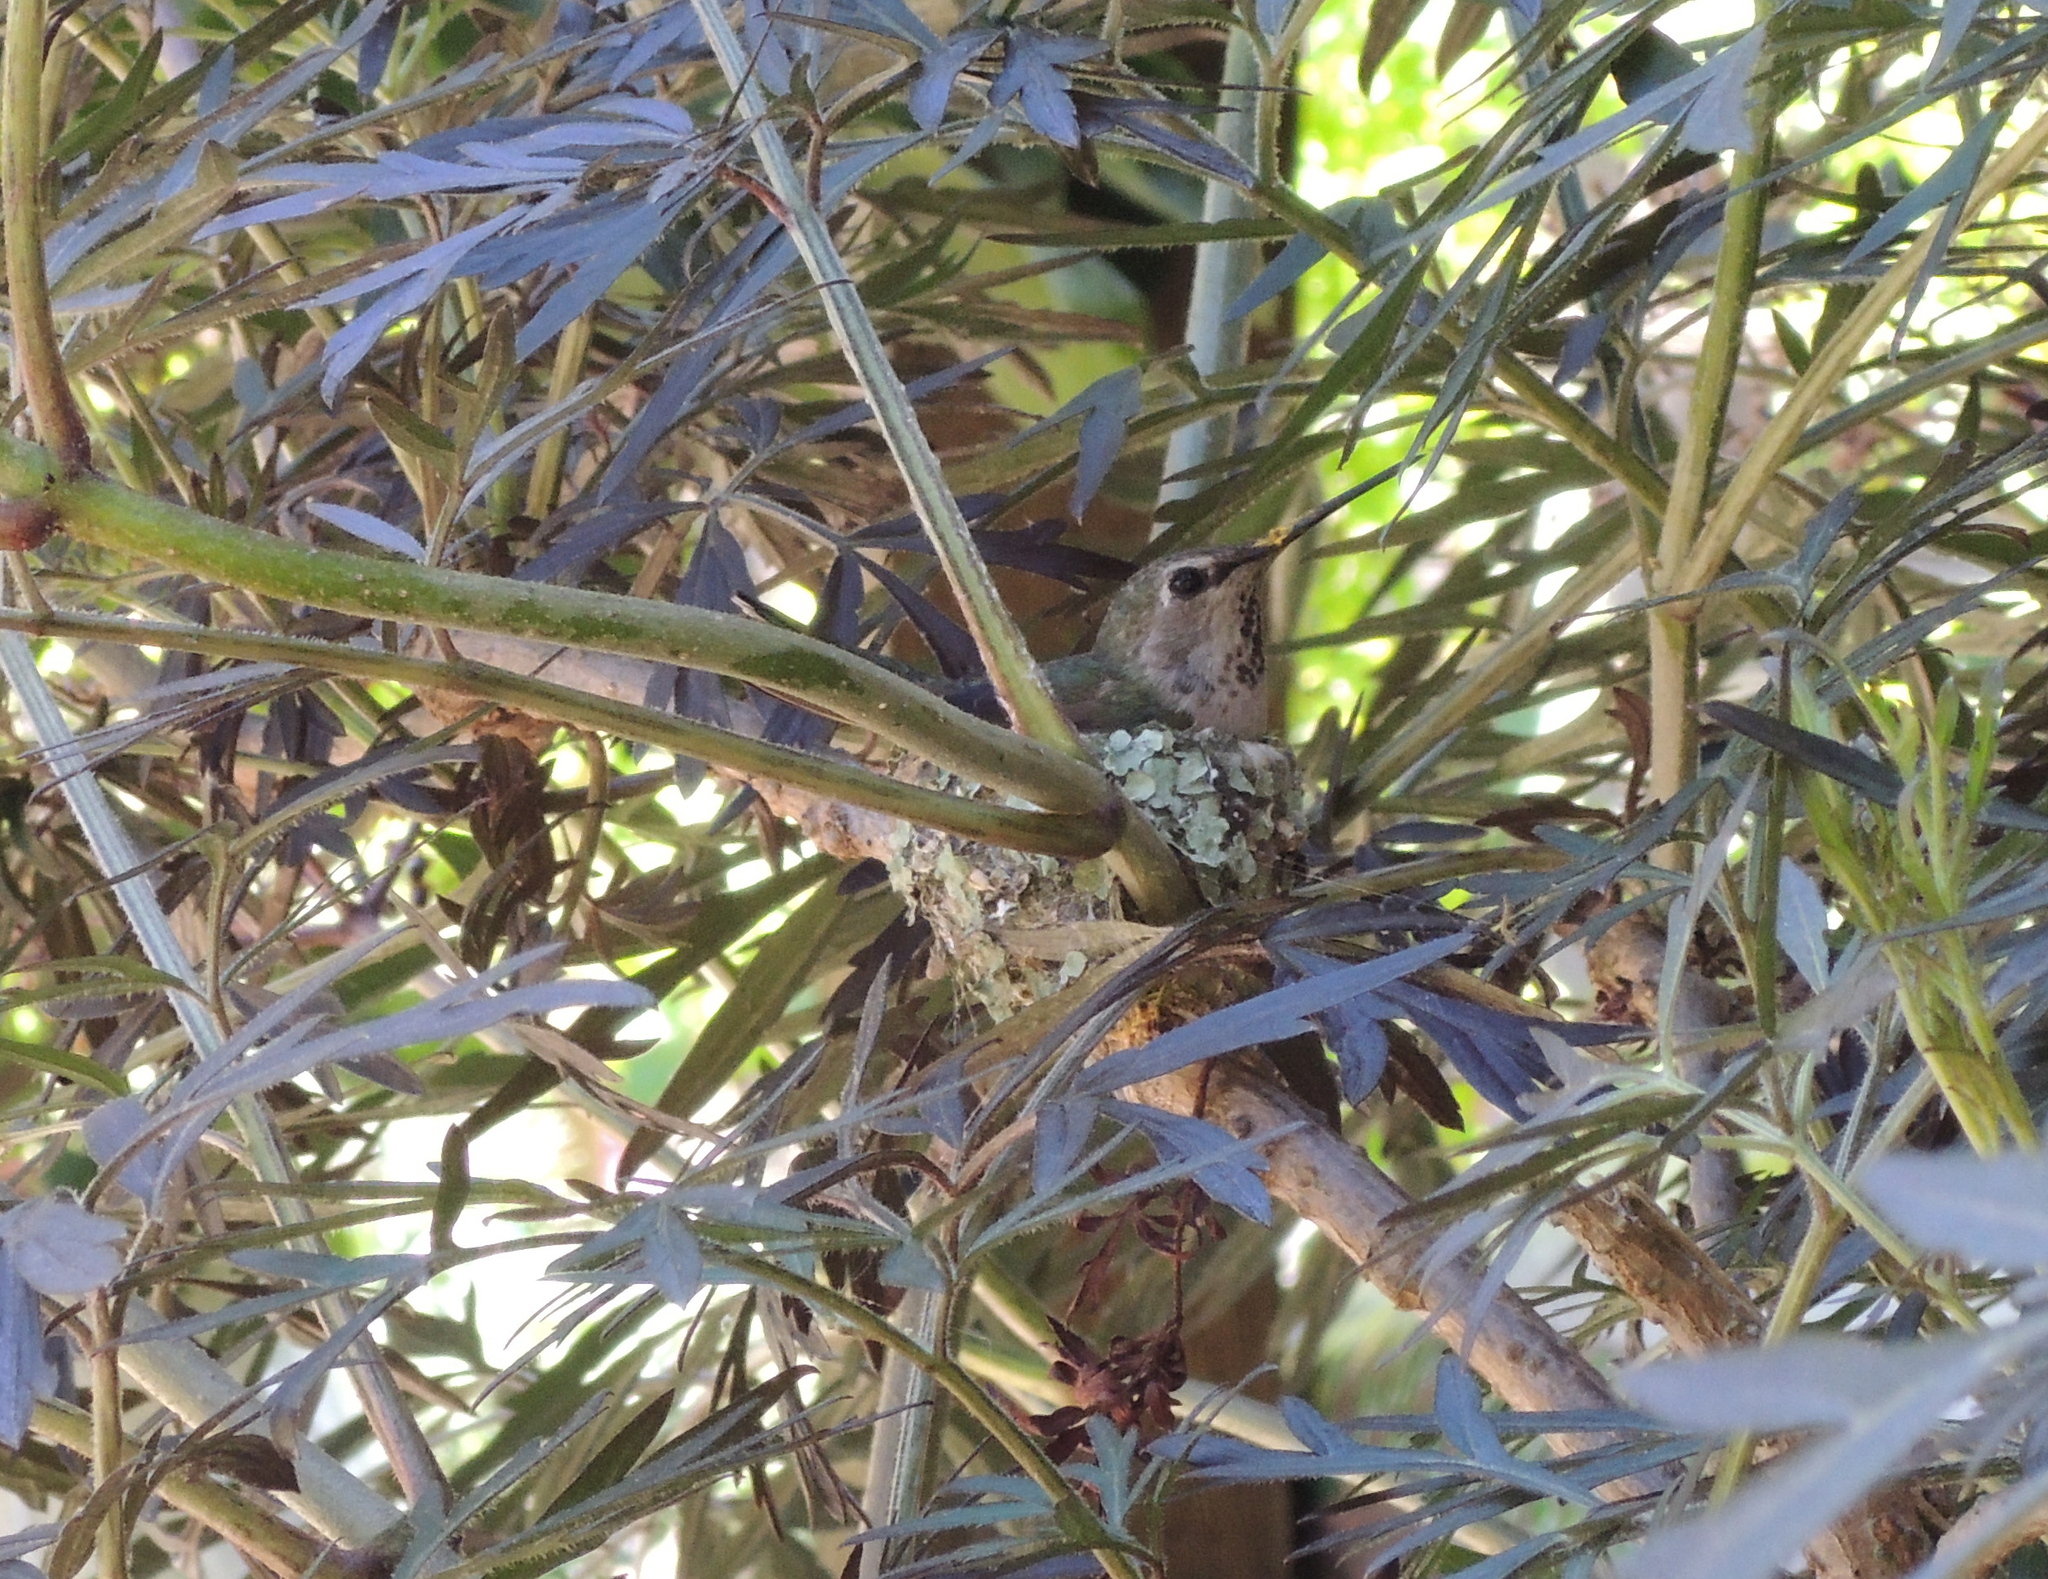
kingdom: Animalia
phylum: Chordata
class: Aves
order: Apodiformes
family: Trochilidae
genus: Calypte
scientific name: Calypte anna
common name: Anna's hummingbird
